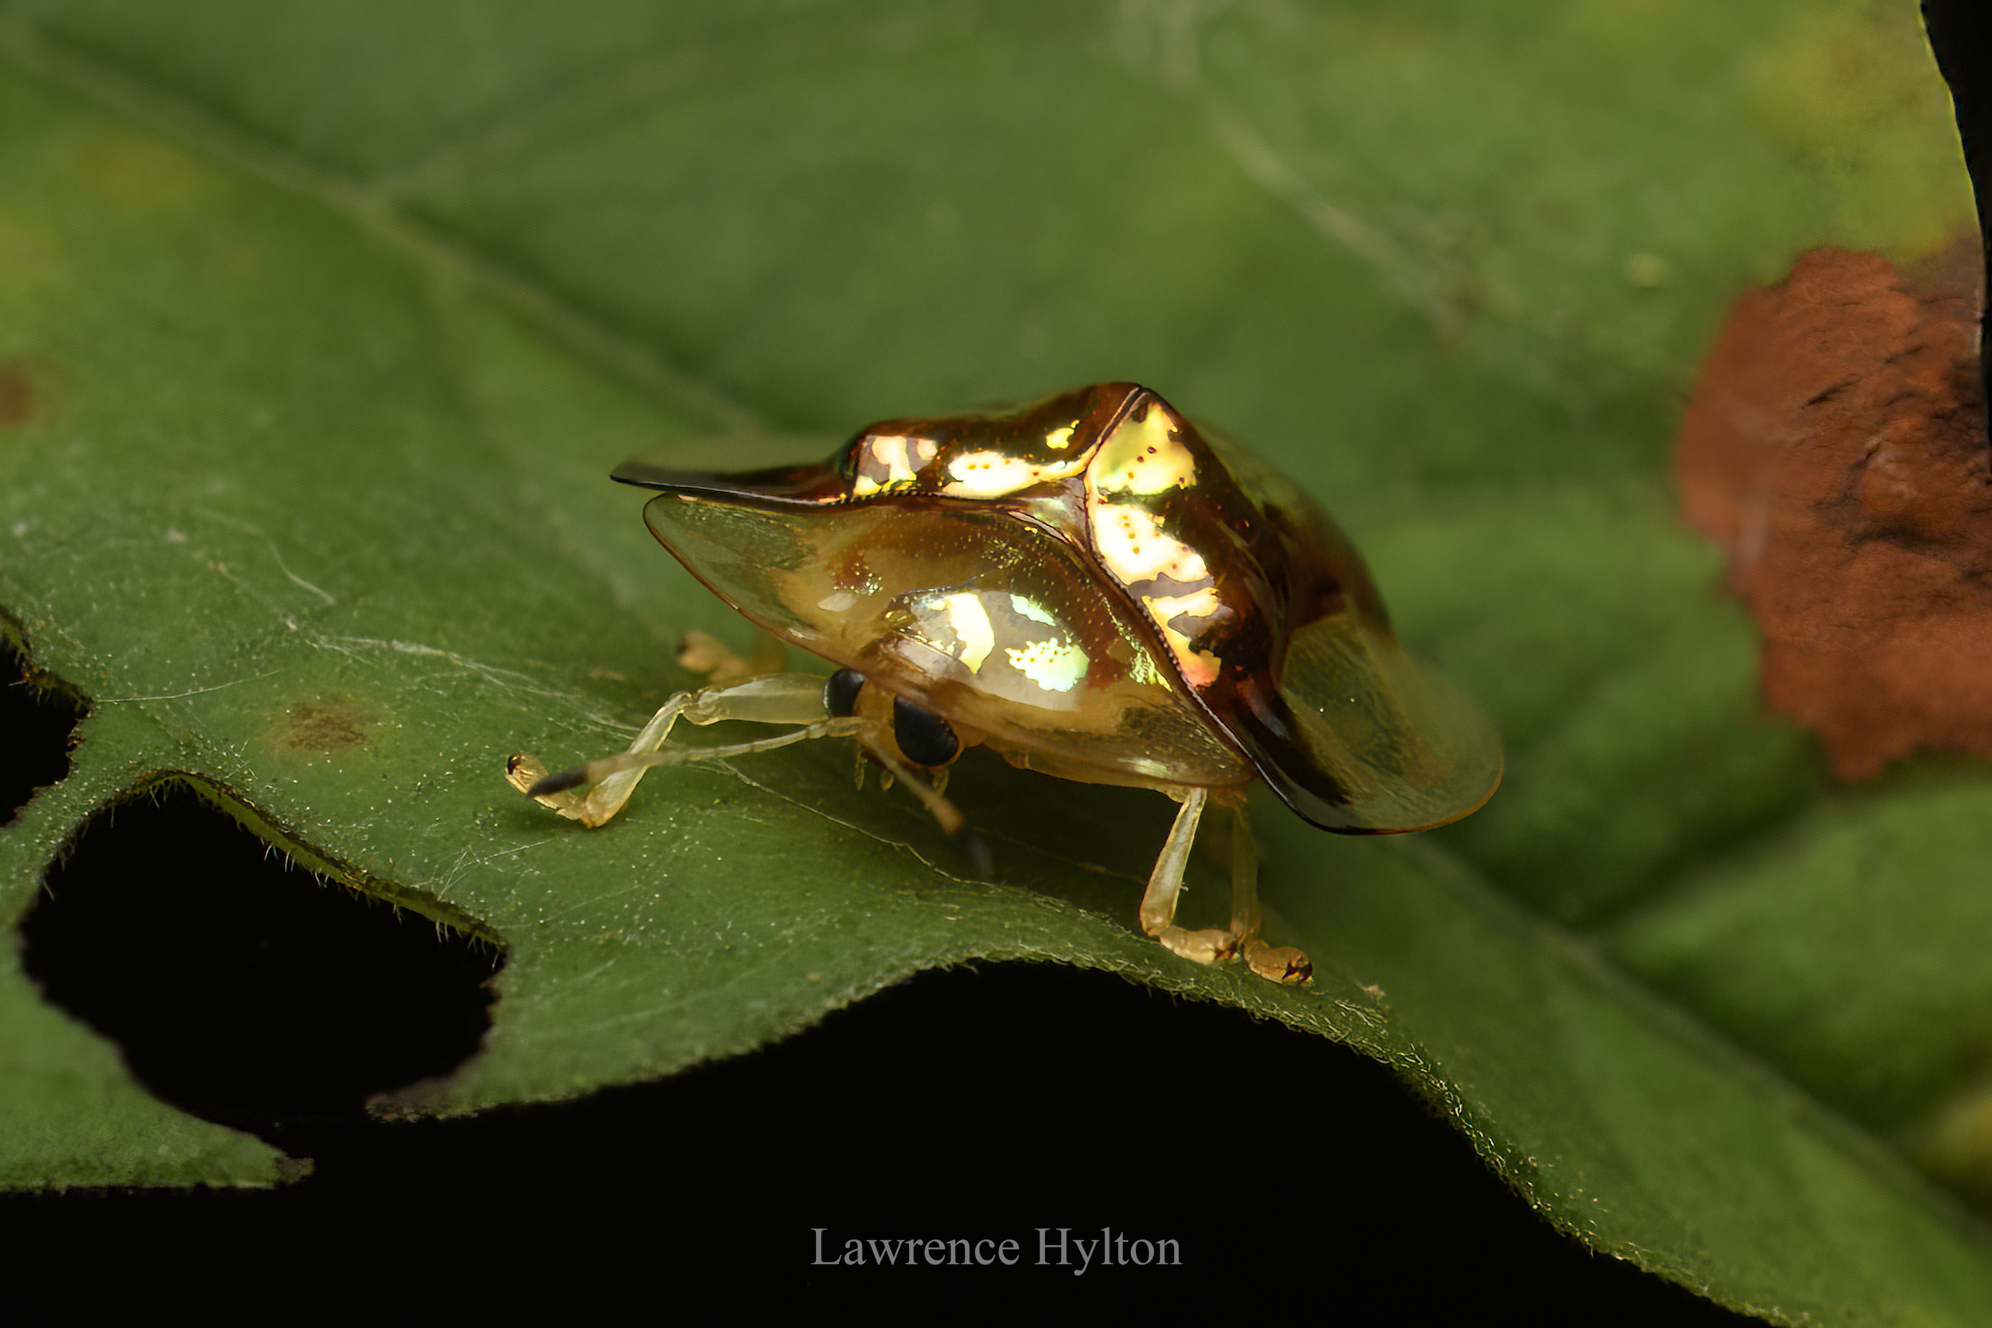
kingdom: Animalia
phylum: Arthropoda
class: Insecta
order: Coleoptera
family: Chrysomelidae
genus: Aspidimorpha
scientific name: Aspidimorpha furcata
